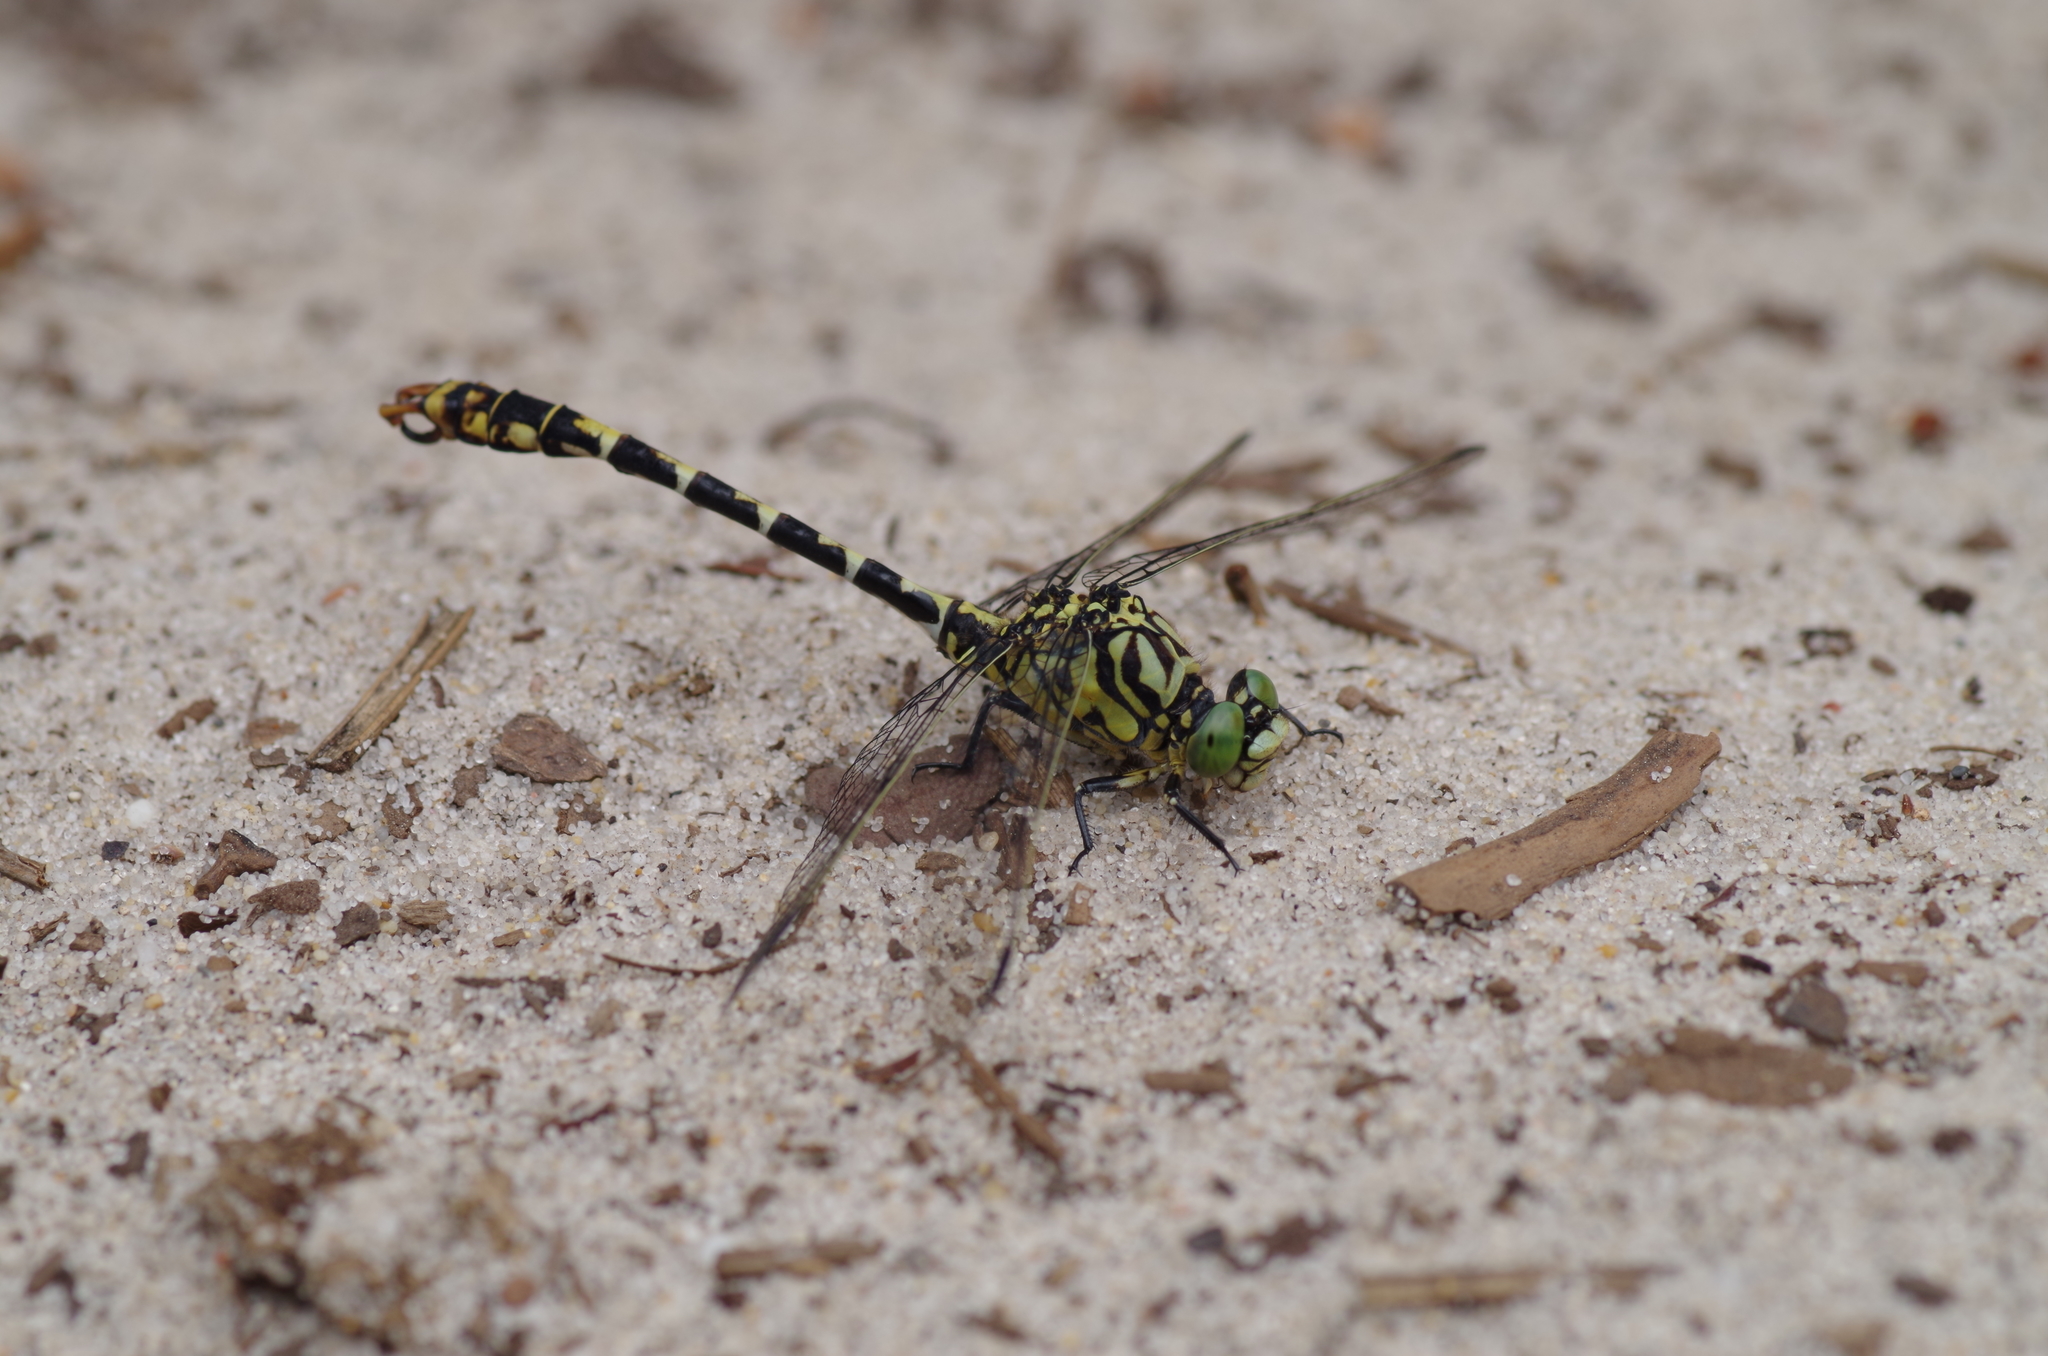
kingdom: Animalia
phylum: Arthropoda
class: Insecta
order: Odonata
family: Gomphidae
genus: Onychogomphus
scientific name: Onychogomphus forcipatus
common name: Small pincertail
